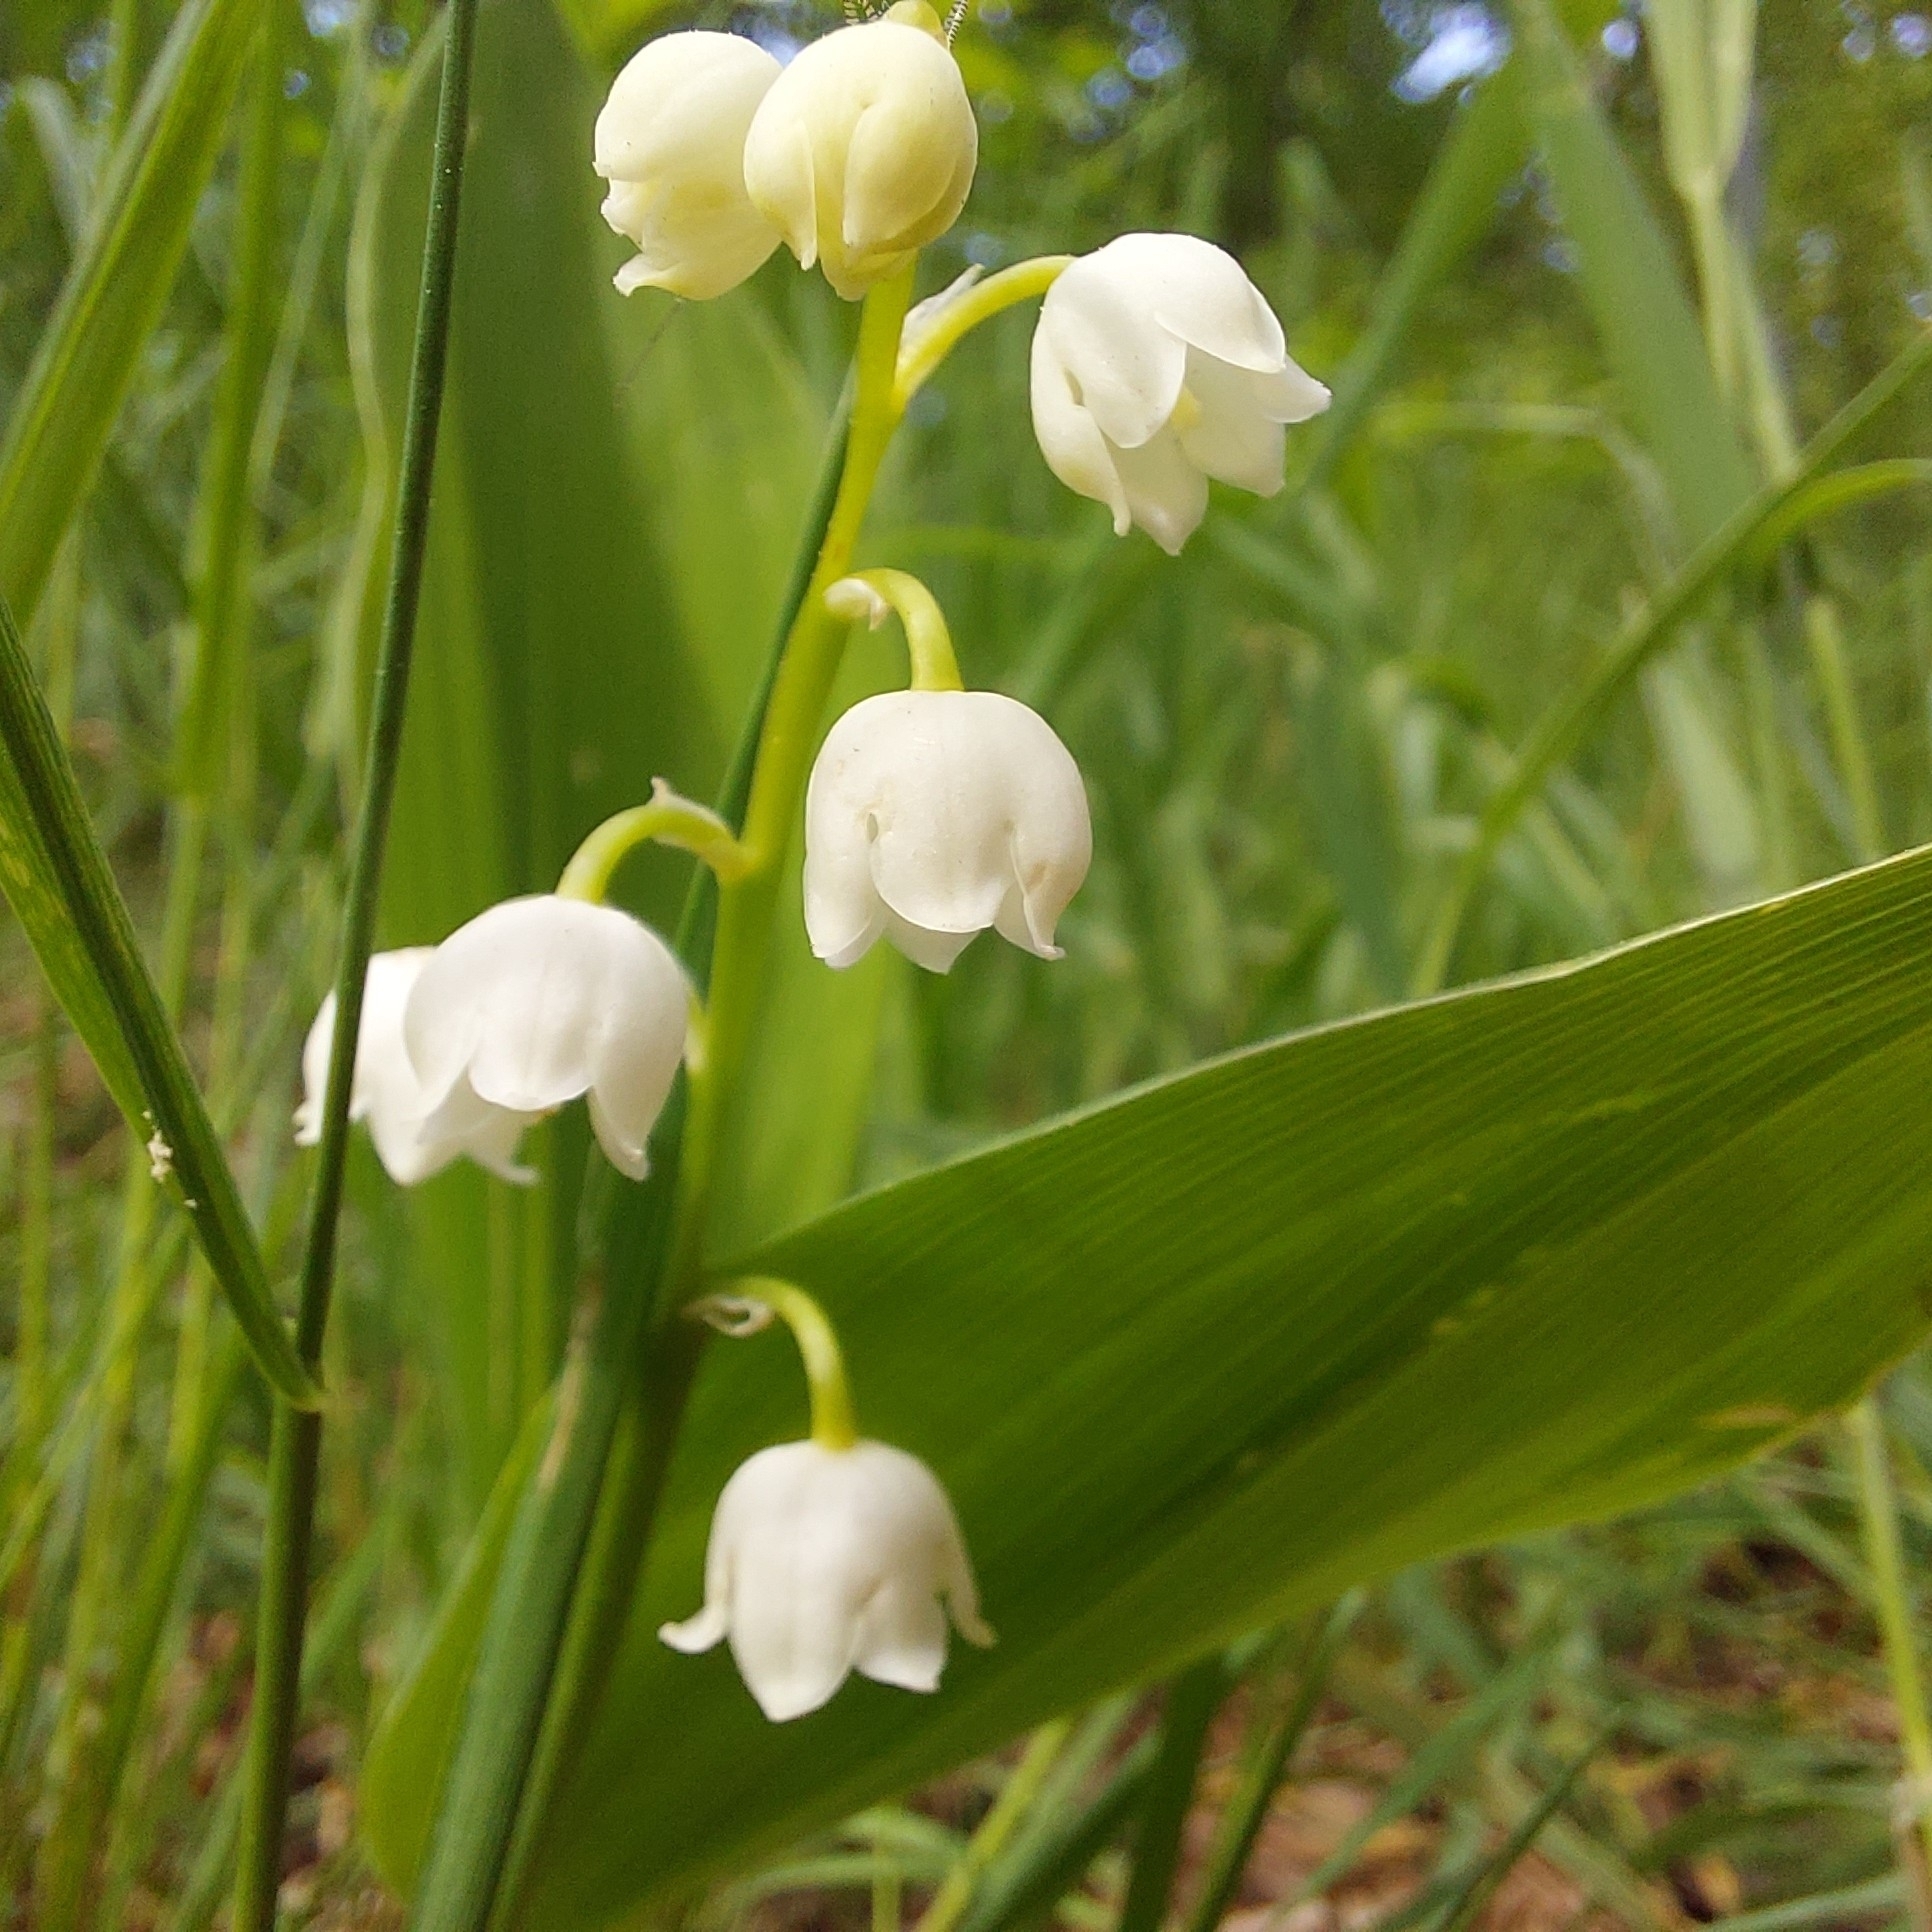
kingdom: Plantae
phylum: Tracheophyta
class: Liliopsida
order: Asparagales
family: Asparagaceae
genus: Convallaria
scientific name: Convallaria majalis
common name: Lily-of-the-valley
